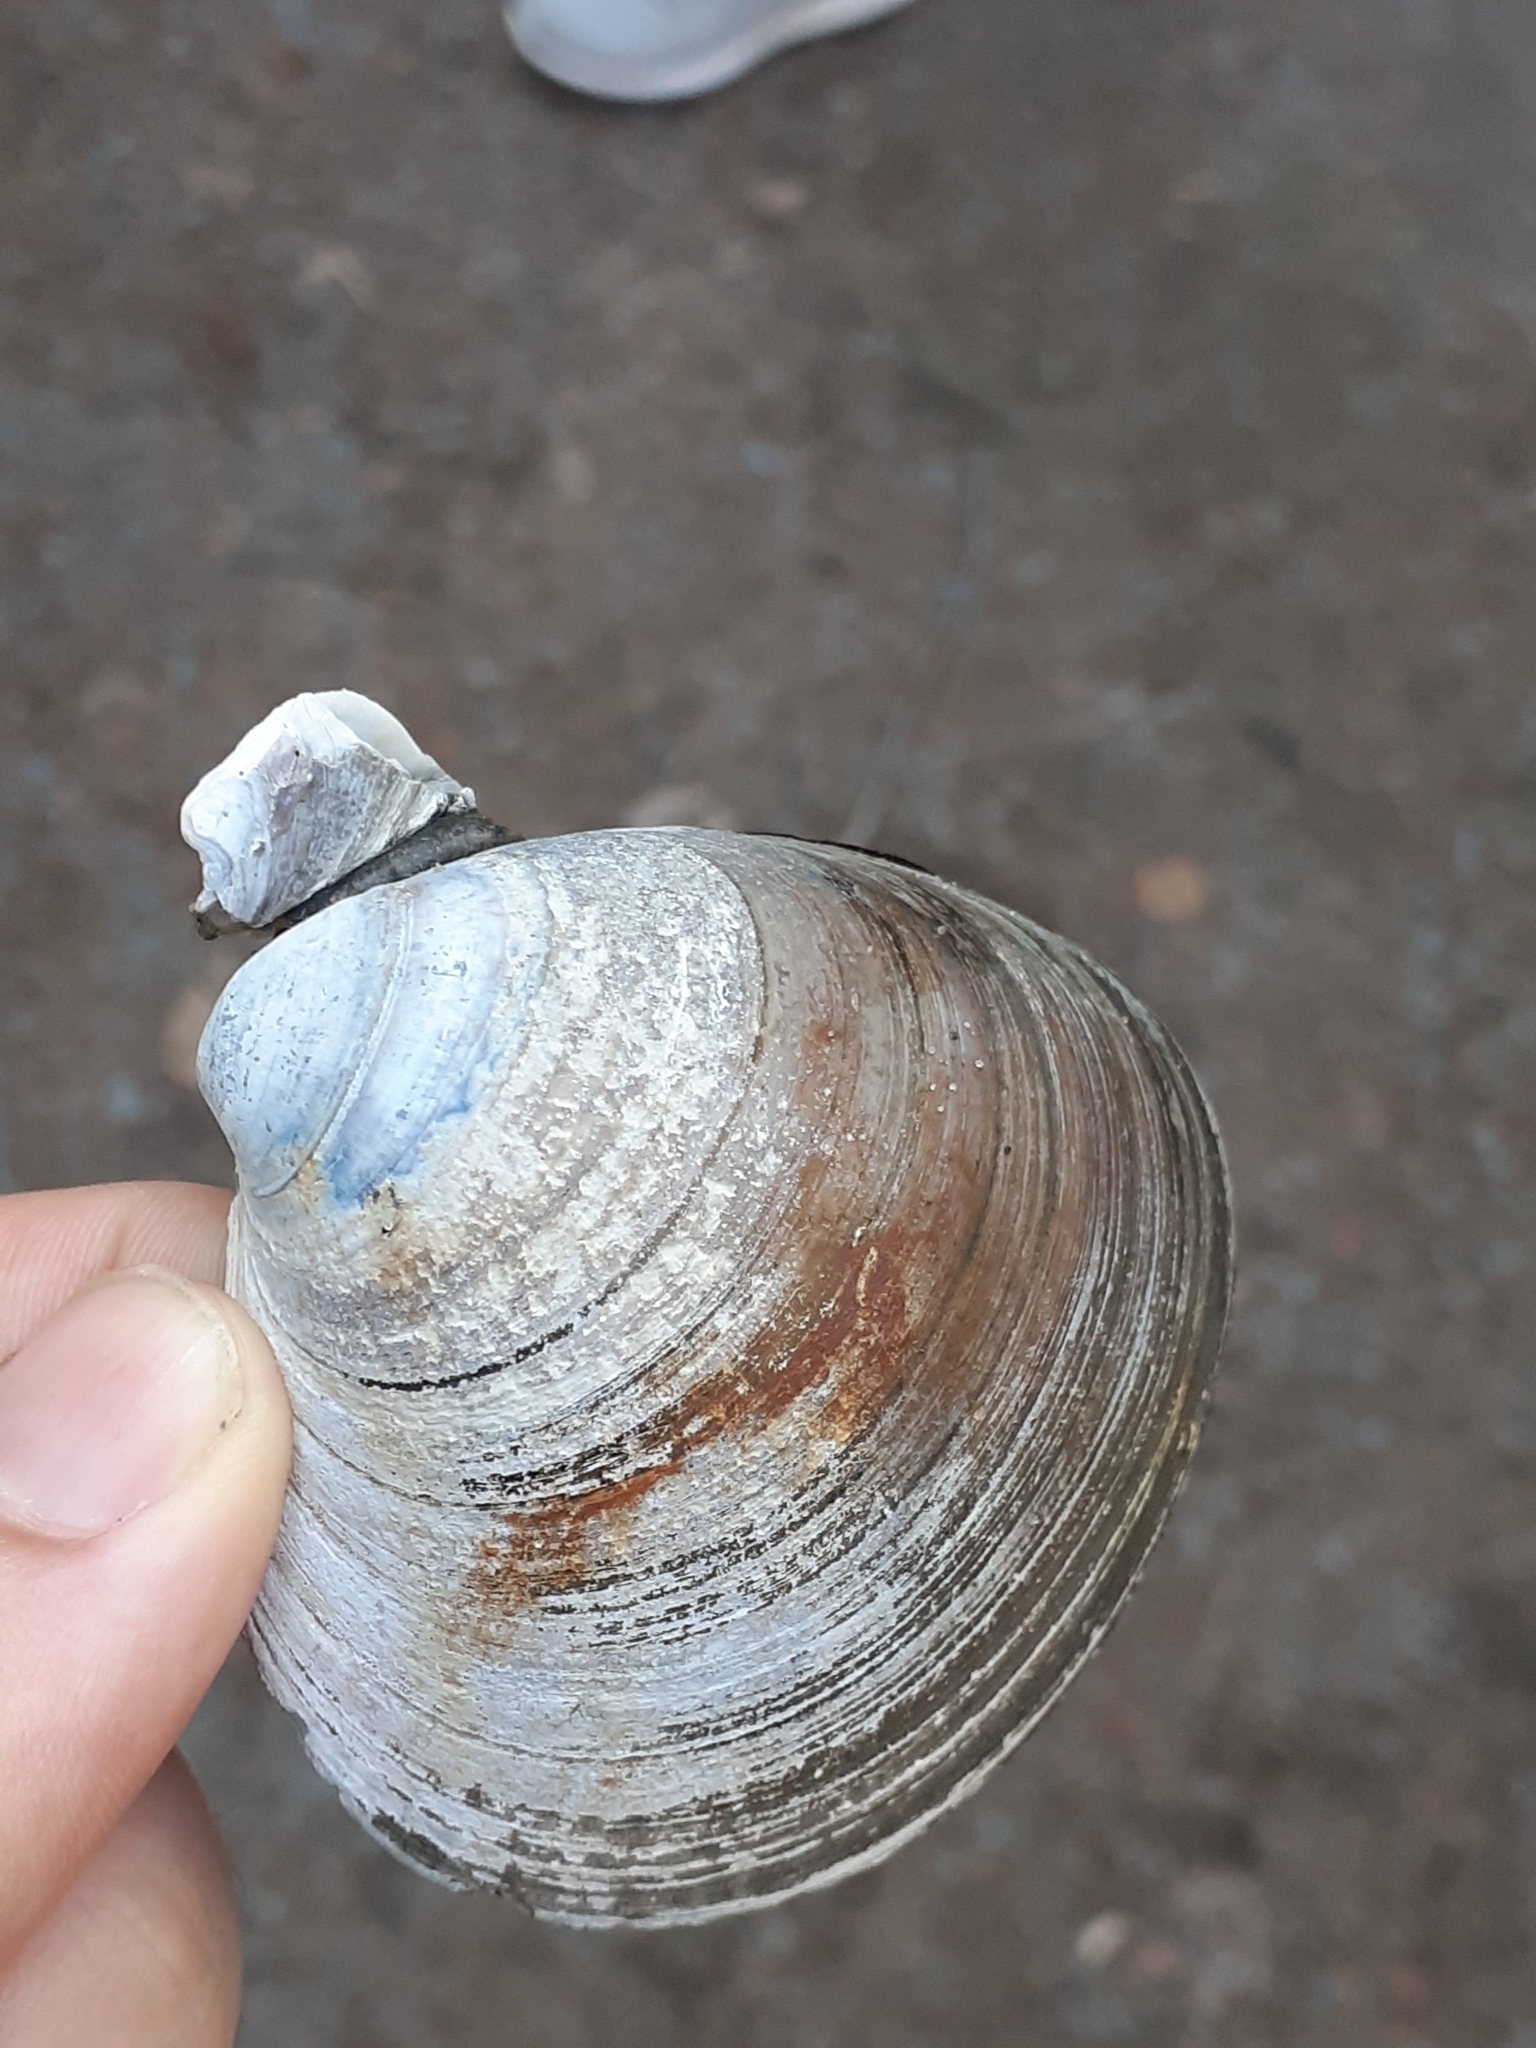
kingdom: Animalia
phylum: Mollusca
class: Bivalvia
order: Venerida
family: Veneridae
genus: Mercenaria
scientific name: Mercenaria mercenaria
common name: American hard-shelled clam
